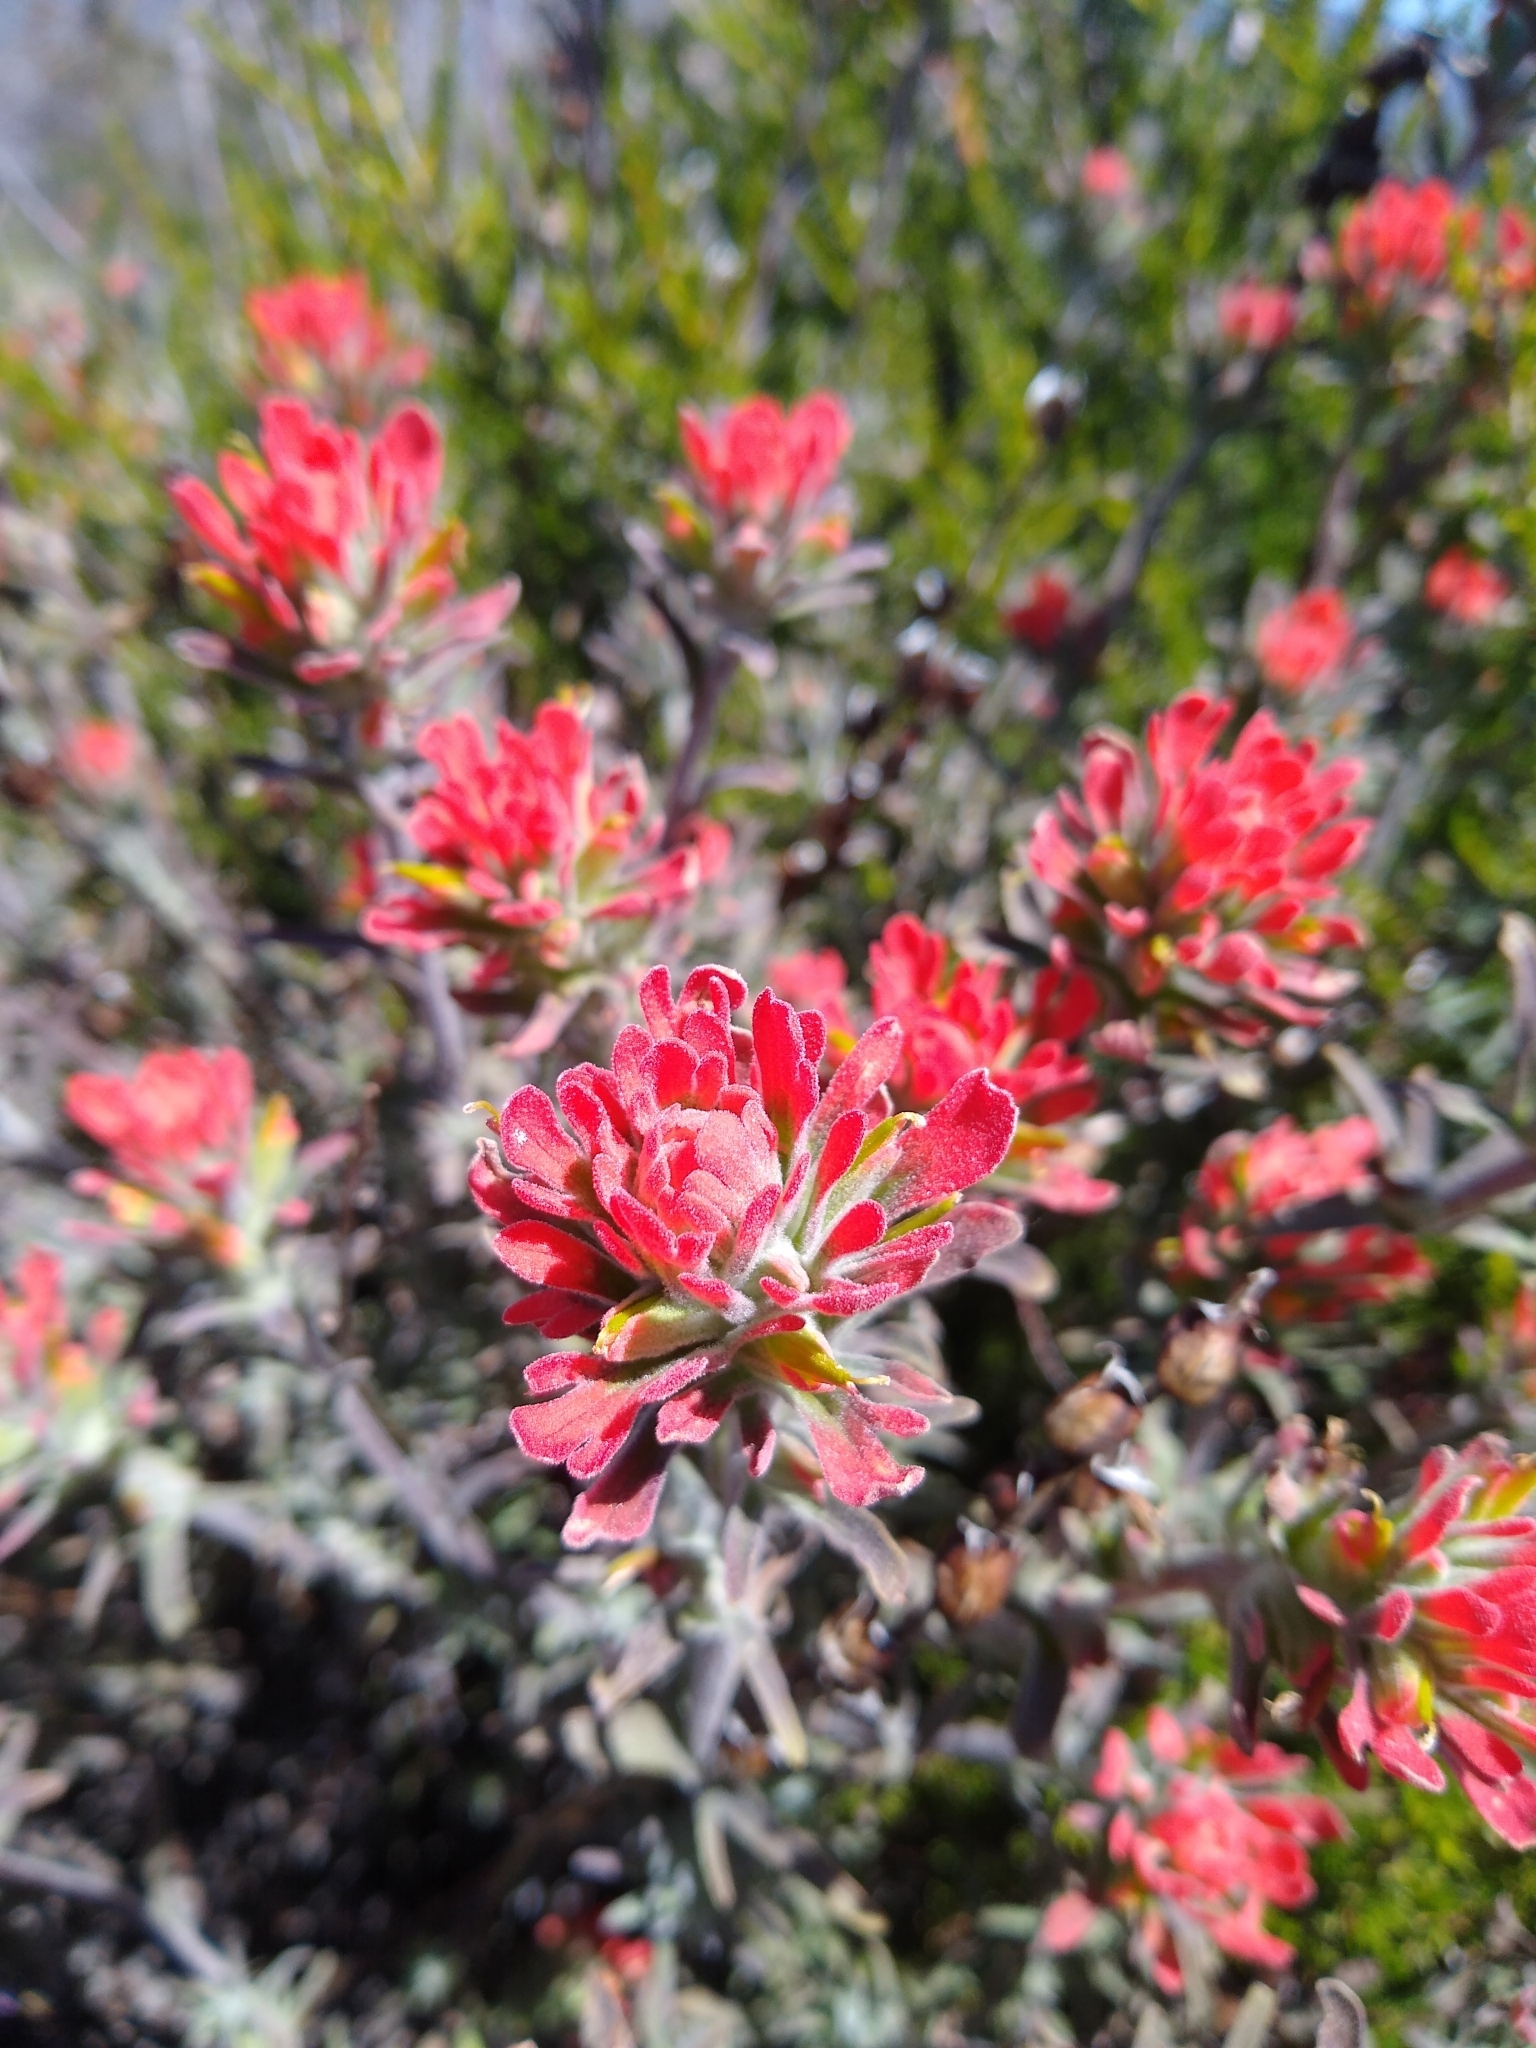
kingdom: Plantae
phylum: Tracheophyta
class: Magnoliopsida
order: Lamiales
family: Orobanchaceae
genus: Castilleja
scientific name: Castilleja foliolosa
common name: Woolly indian paintbrush
